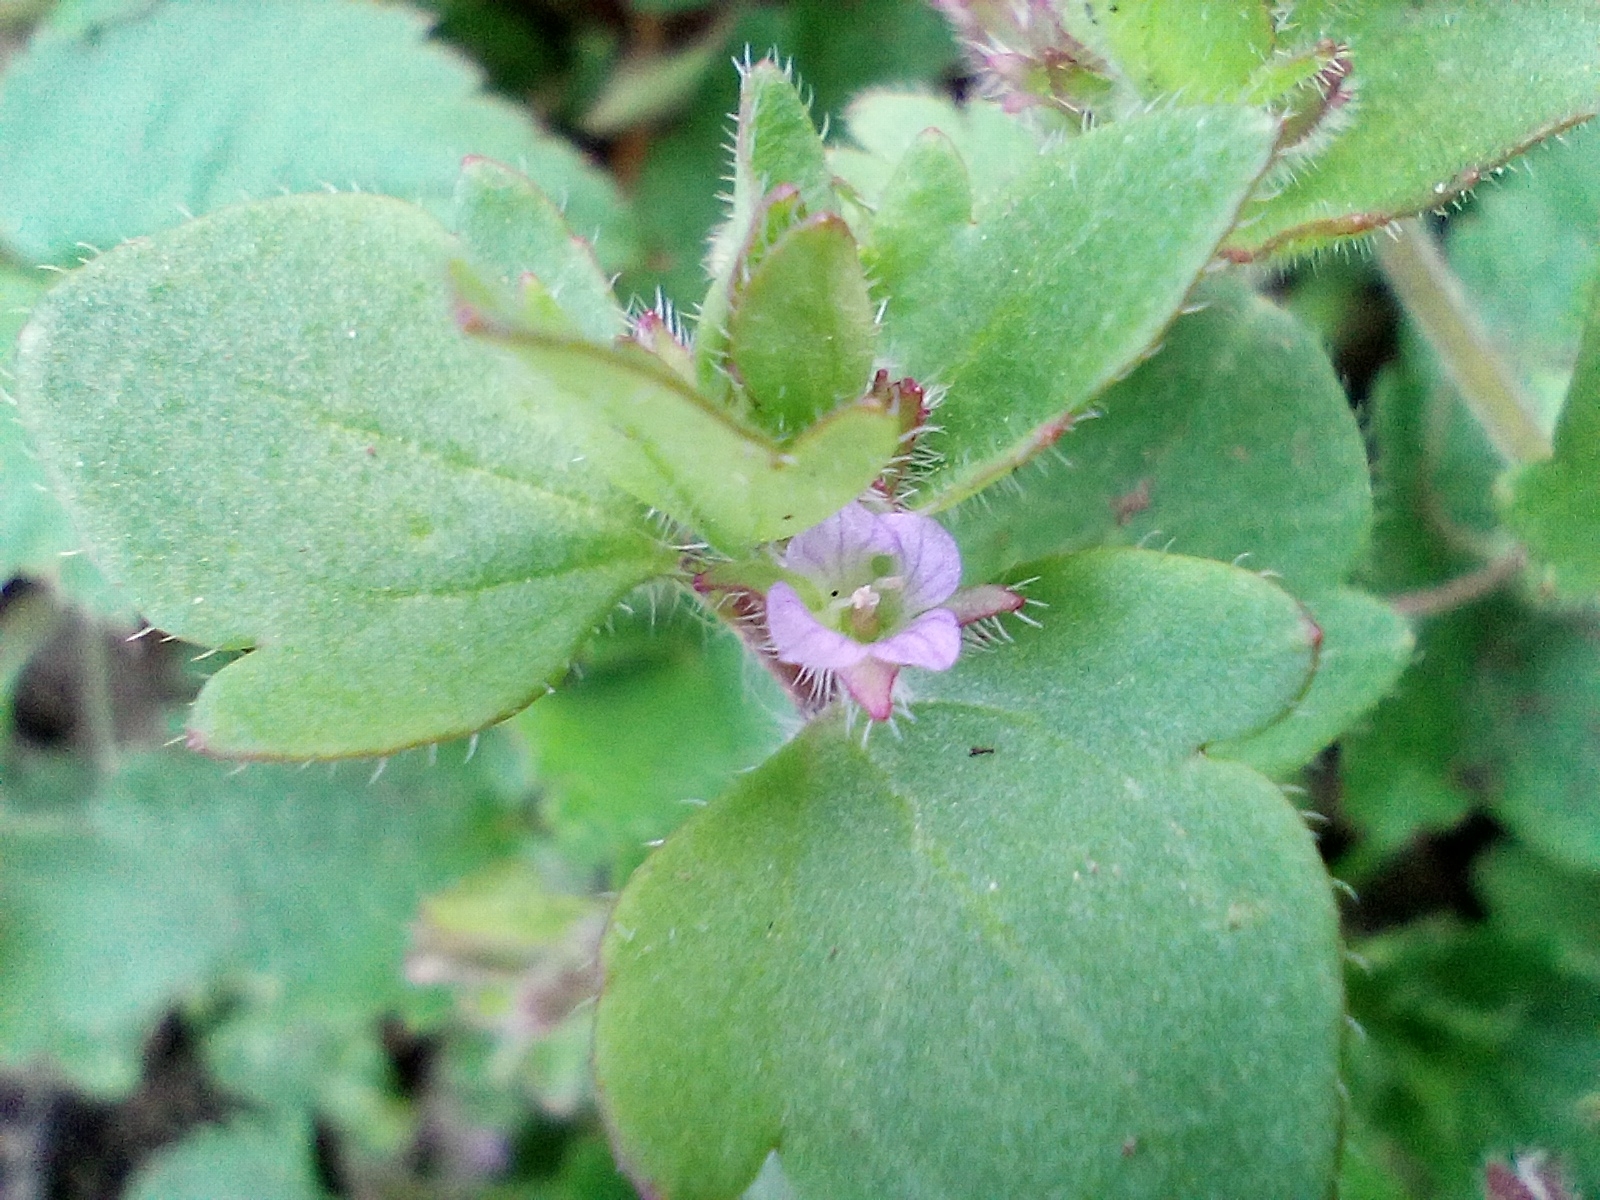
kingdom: Plantae
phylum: Tracheophyta
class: Magnoliopsida
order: Lamiales
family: Plantaginaceae
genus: Veronica
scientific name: Veronica sublobata
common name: False ivy-leaved speedwell
